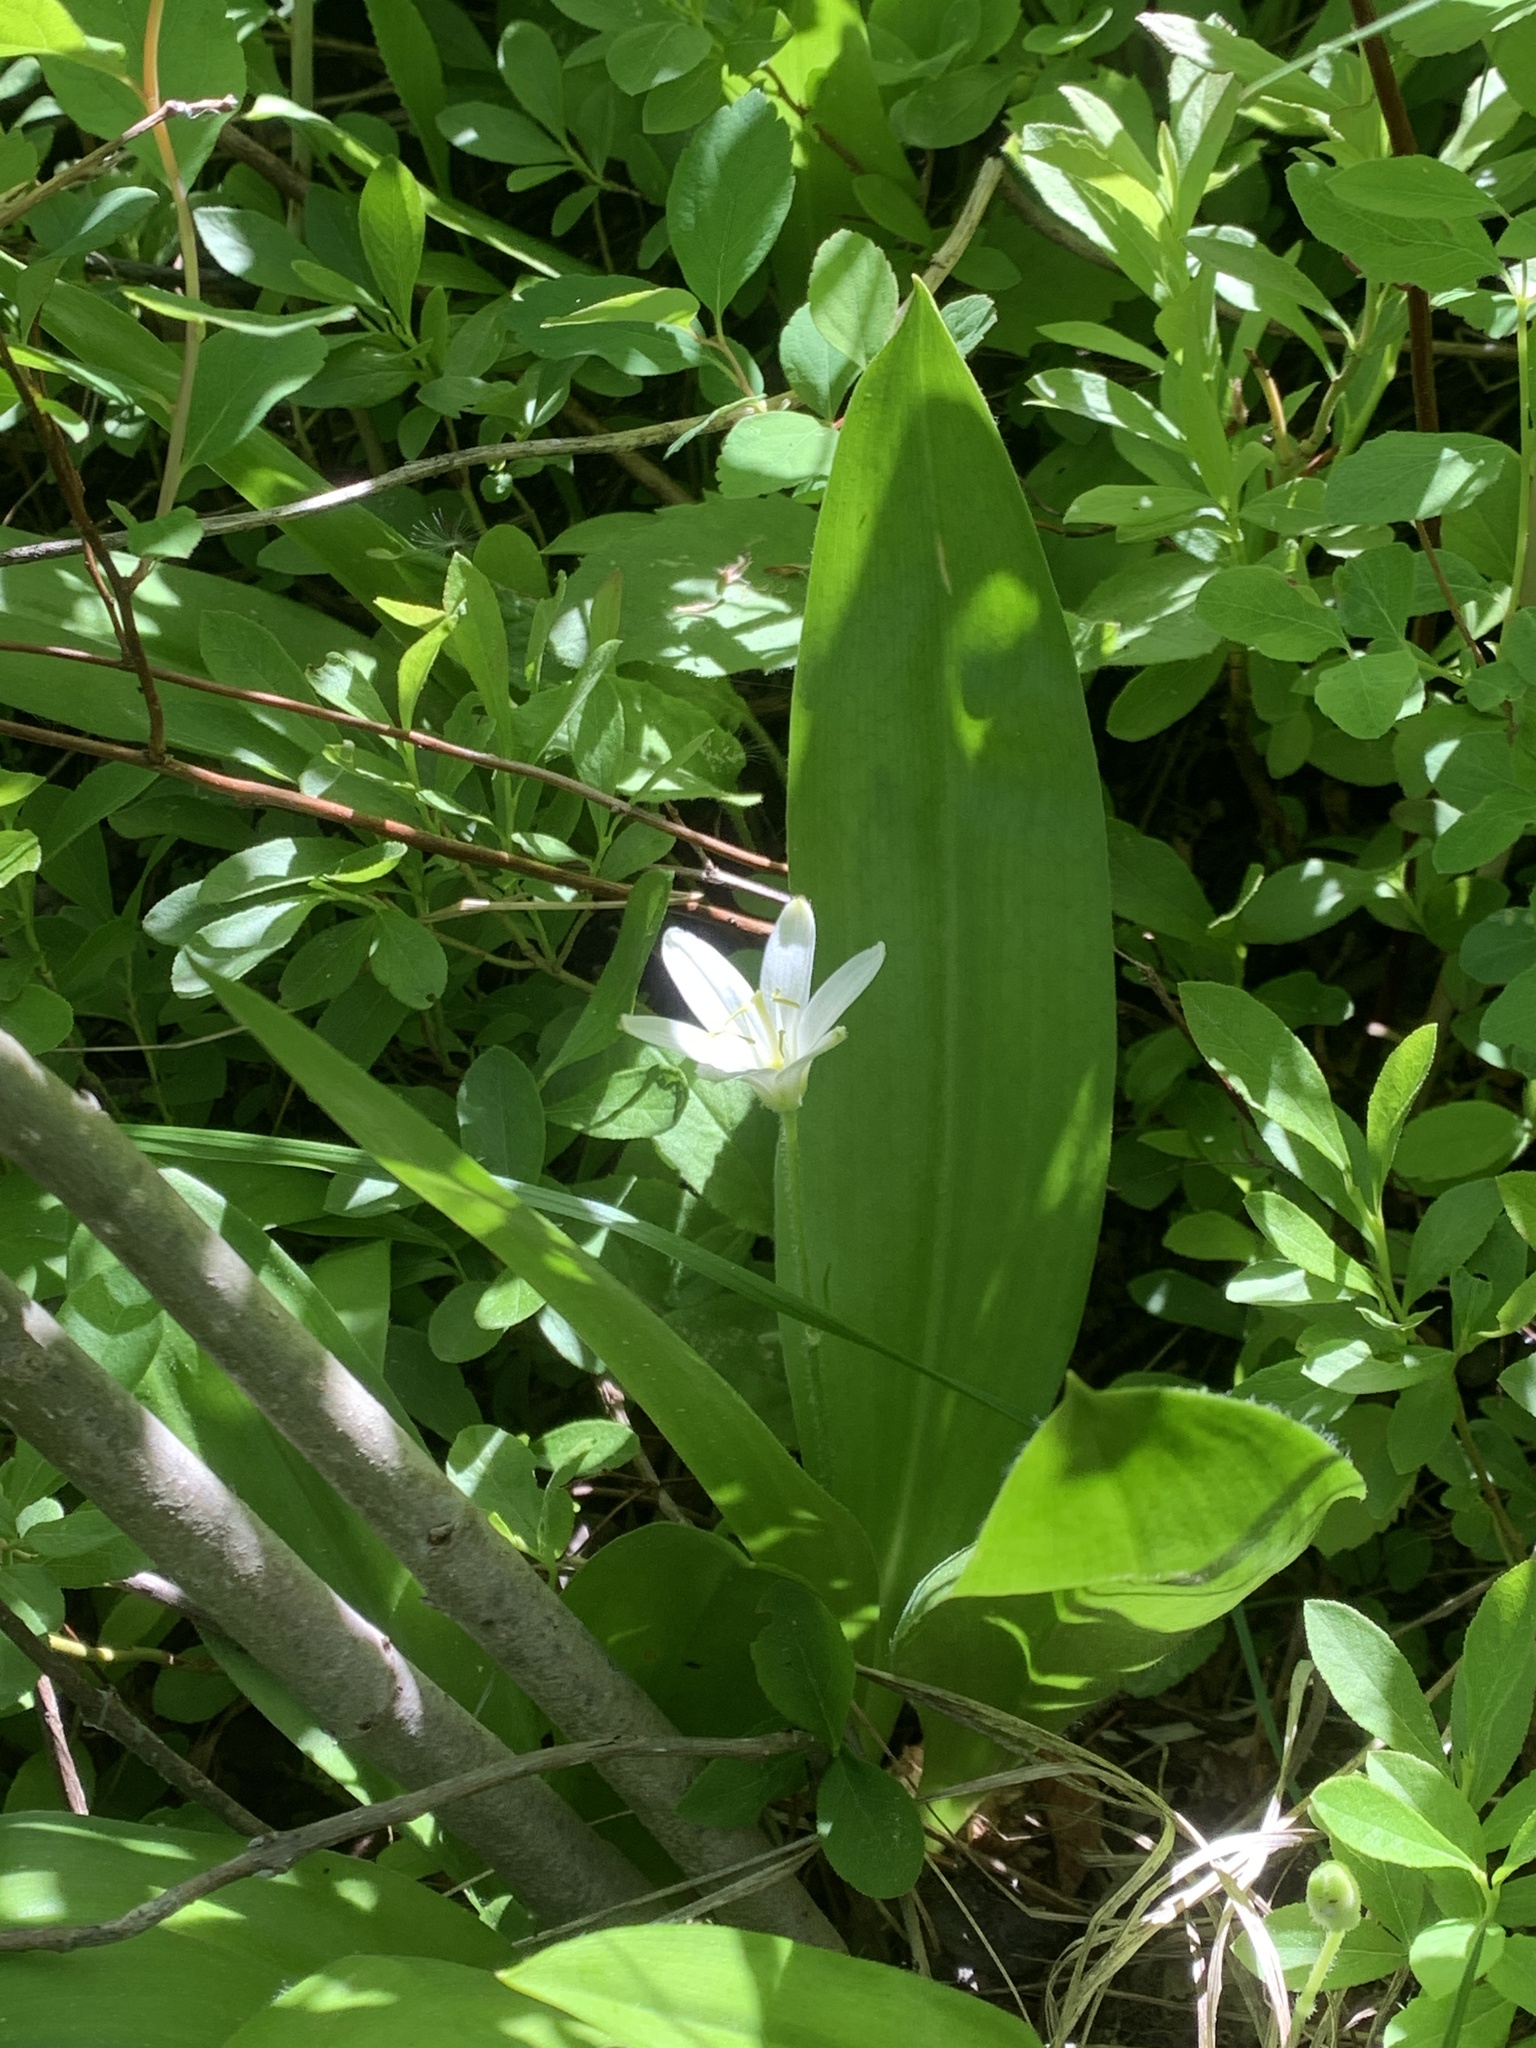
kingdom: Plantae
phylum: Tracheophyta
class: Liliopsida
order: Liliales
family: Liliaceae
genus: Clintonia
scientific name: Clintonia uniflora
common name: Queen's cup
